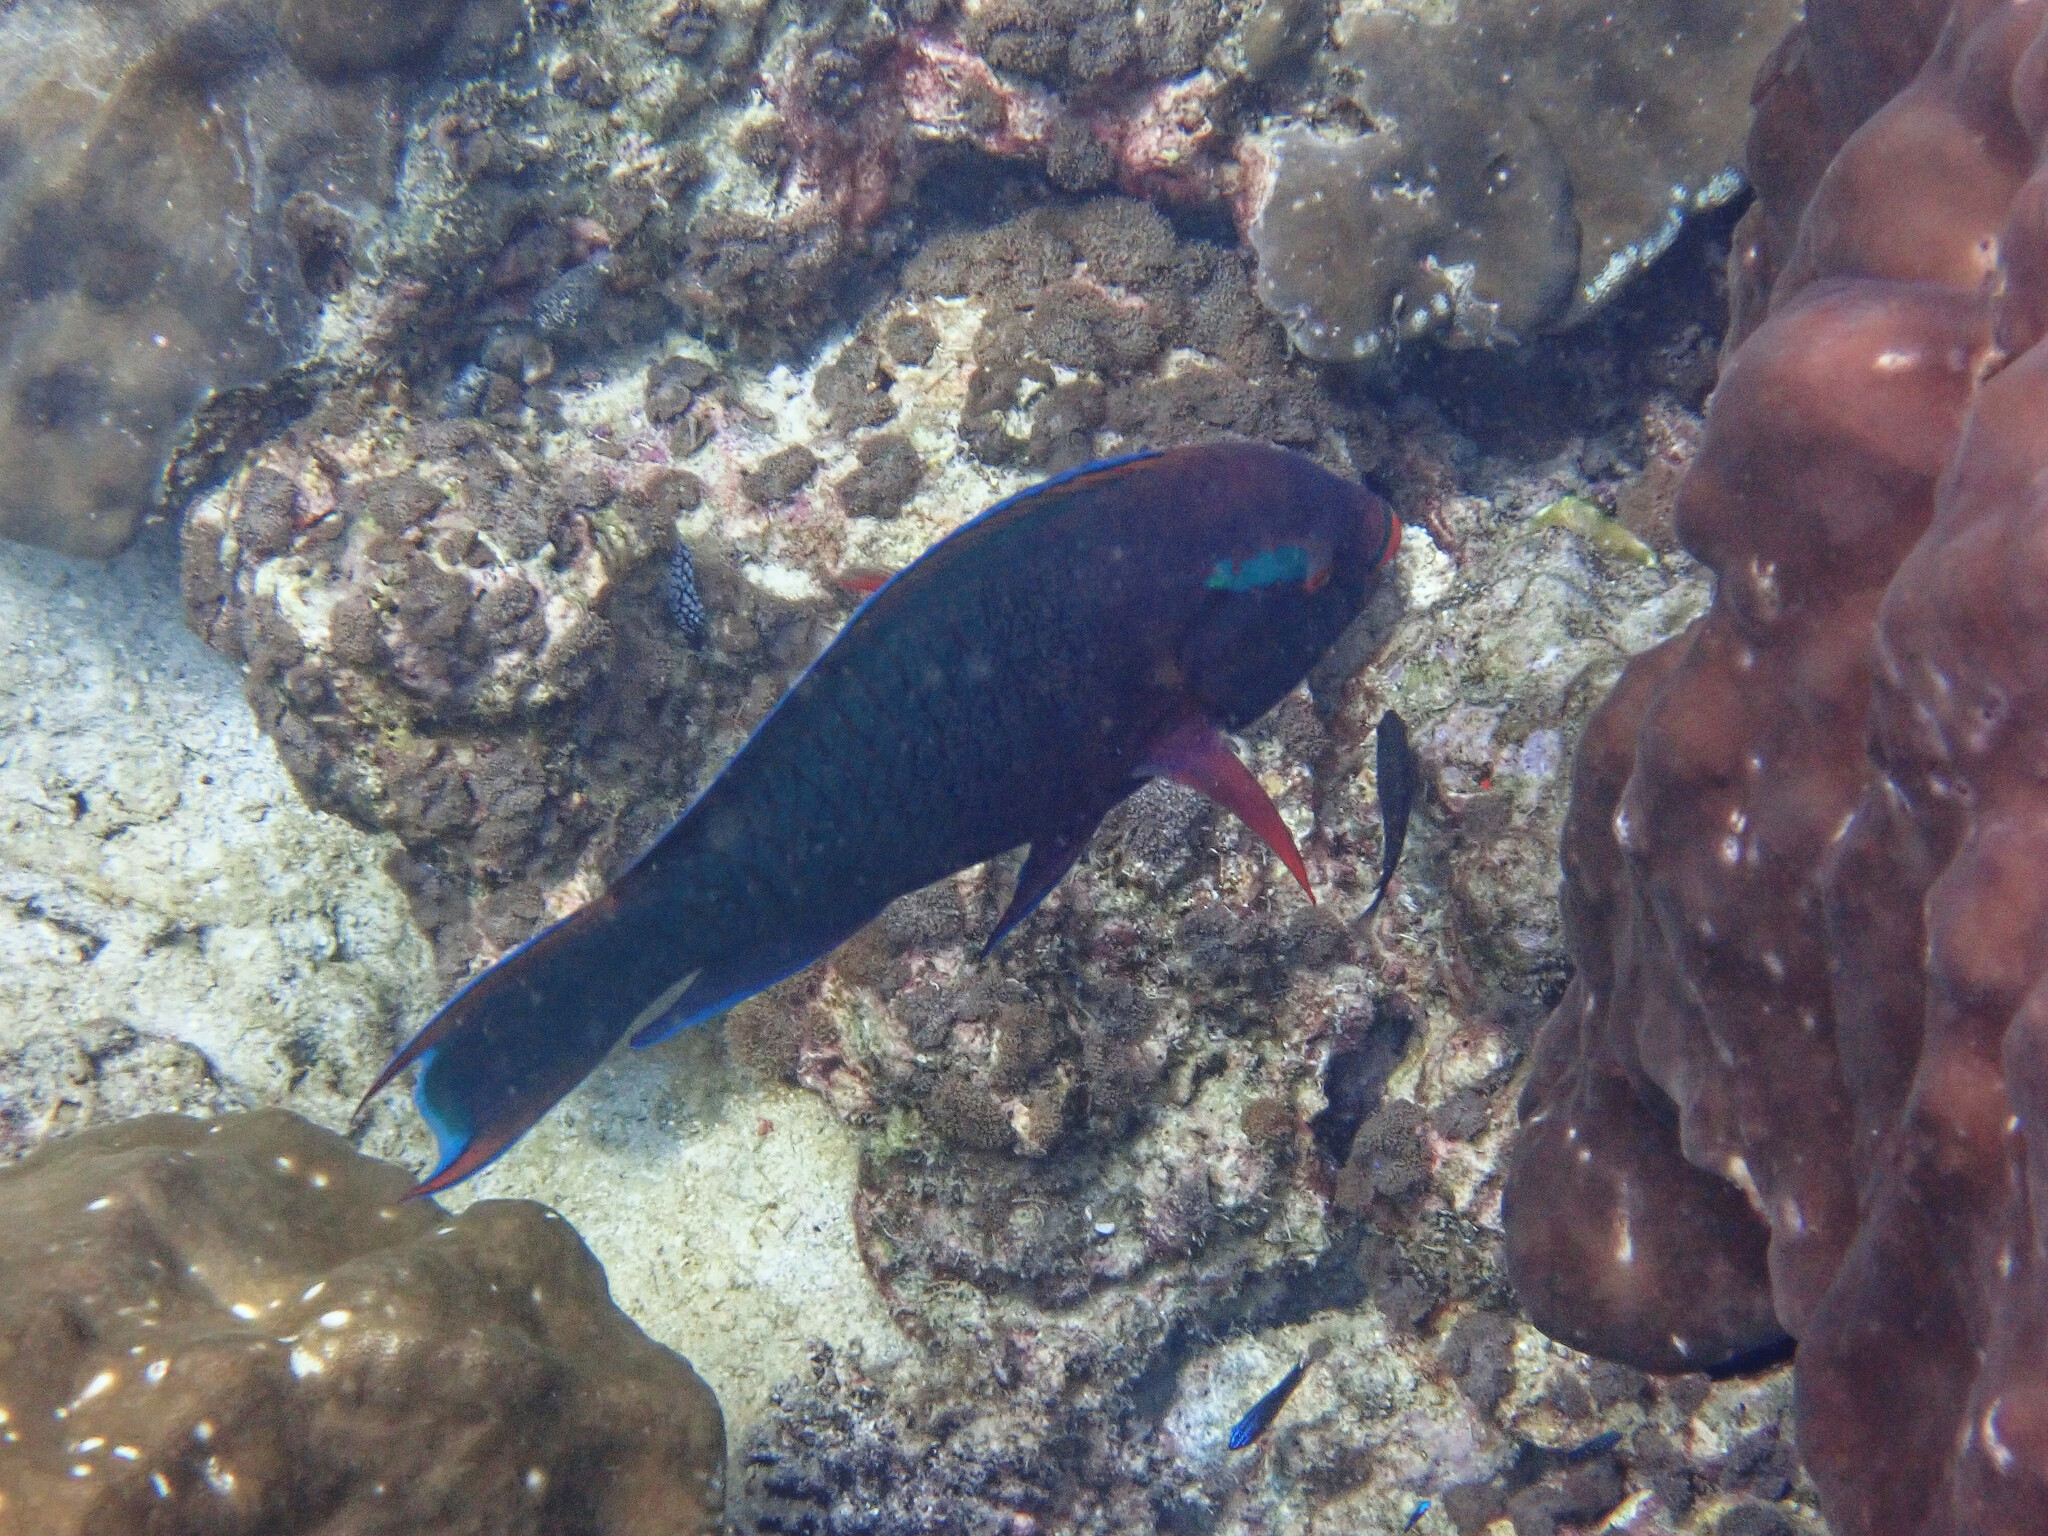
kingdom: Animalia
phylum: Chordata
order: Perciformes
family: Scaridae
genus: Scarus
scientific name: Scarus niger
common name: Dusky parrotfish
